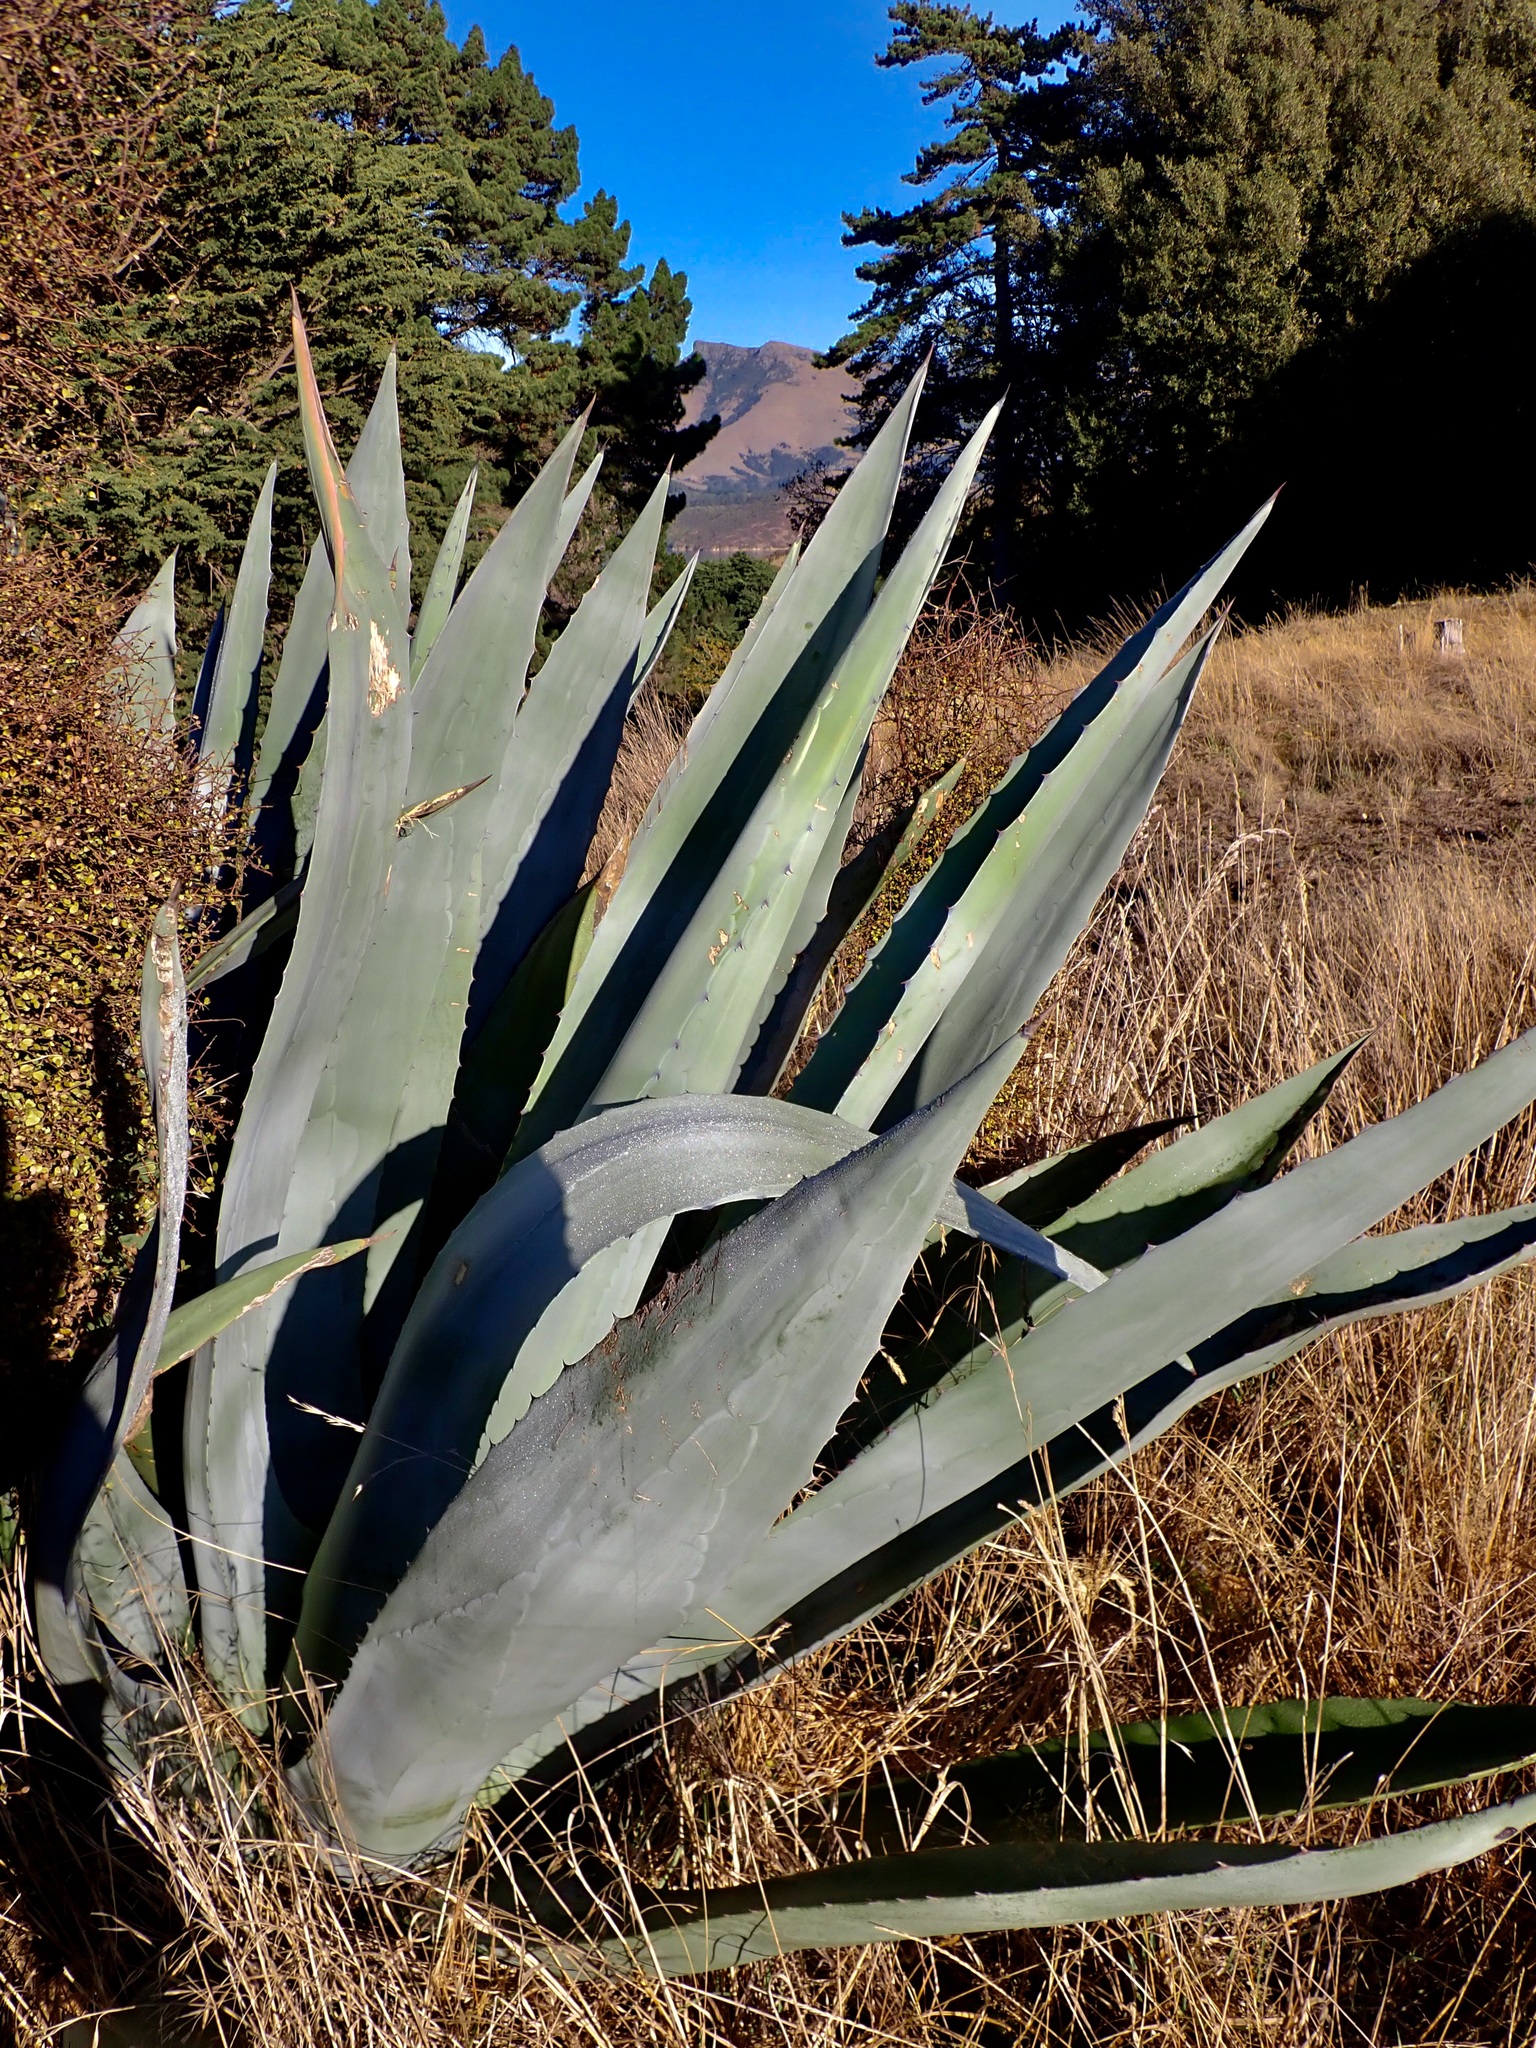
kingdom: Plantae
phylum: Tracheophyta
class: Liliopsida
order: Asparagales
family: Asparagaceae
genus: Agave
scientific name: Agave americana
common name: Centuryplant
